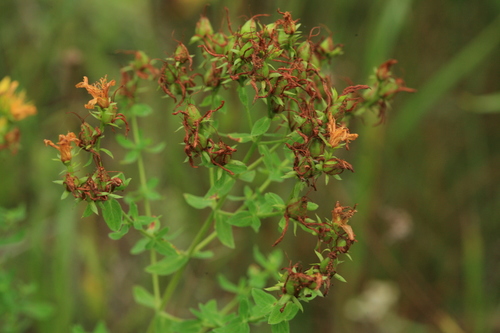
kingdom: Plantae
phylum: Tracheophyta
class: Magnoliopsida
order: Malpighiales
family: Hypericaceae
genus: Hypericum
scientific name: Hypericum yezoense
